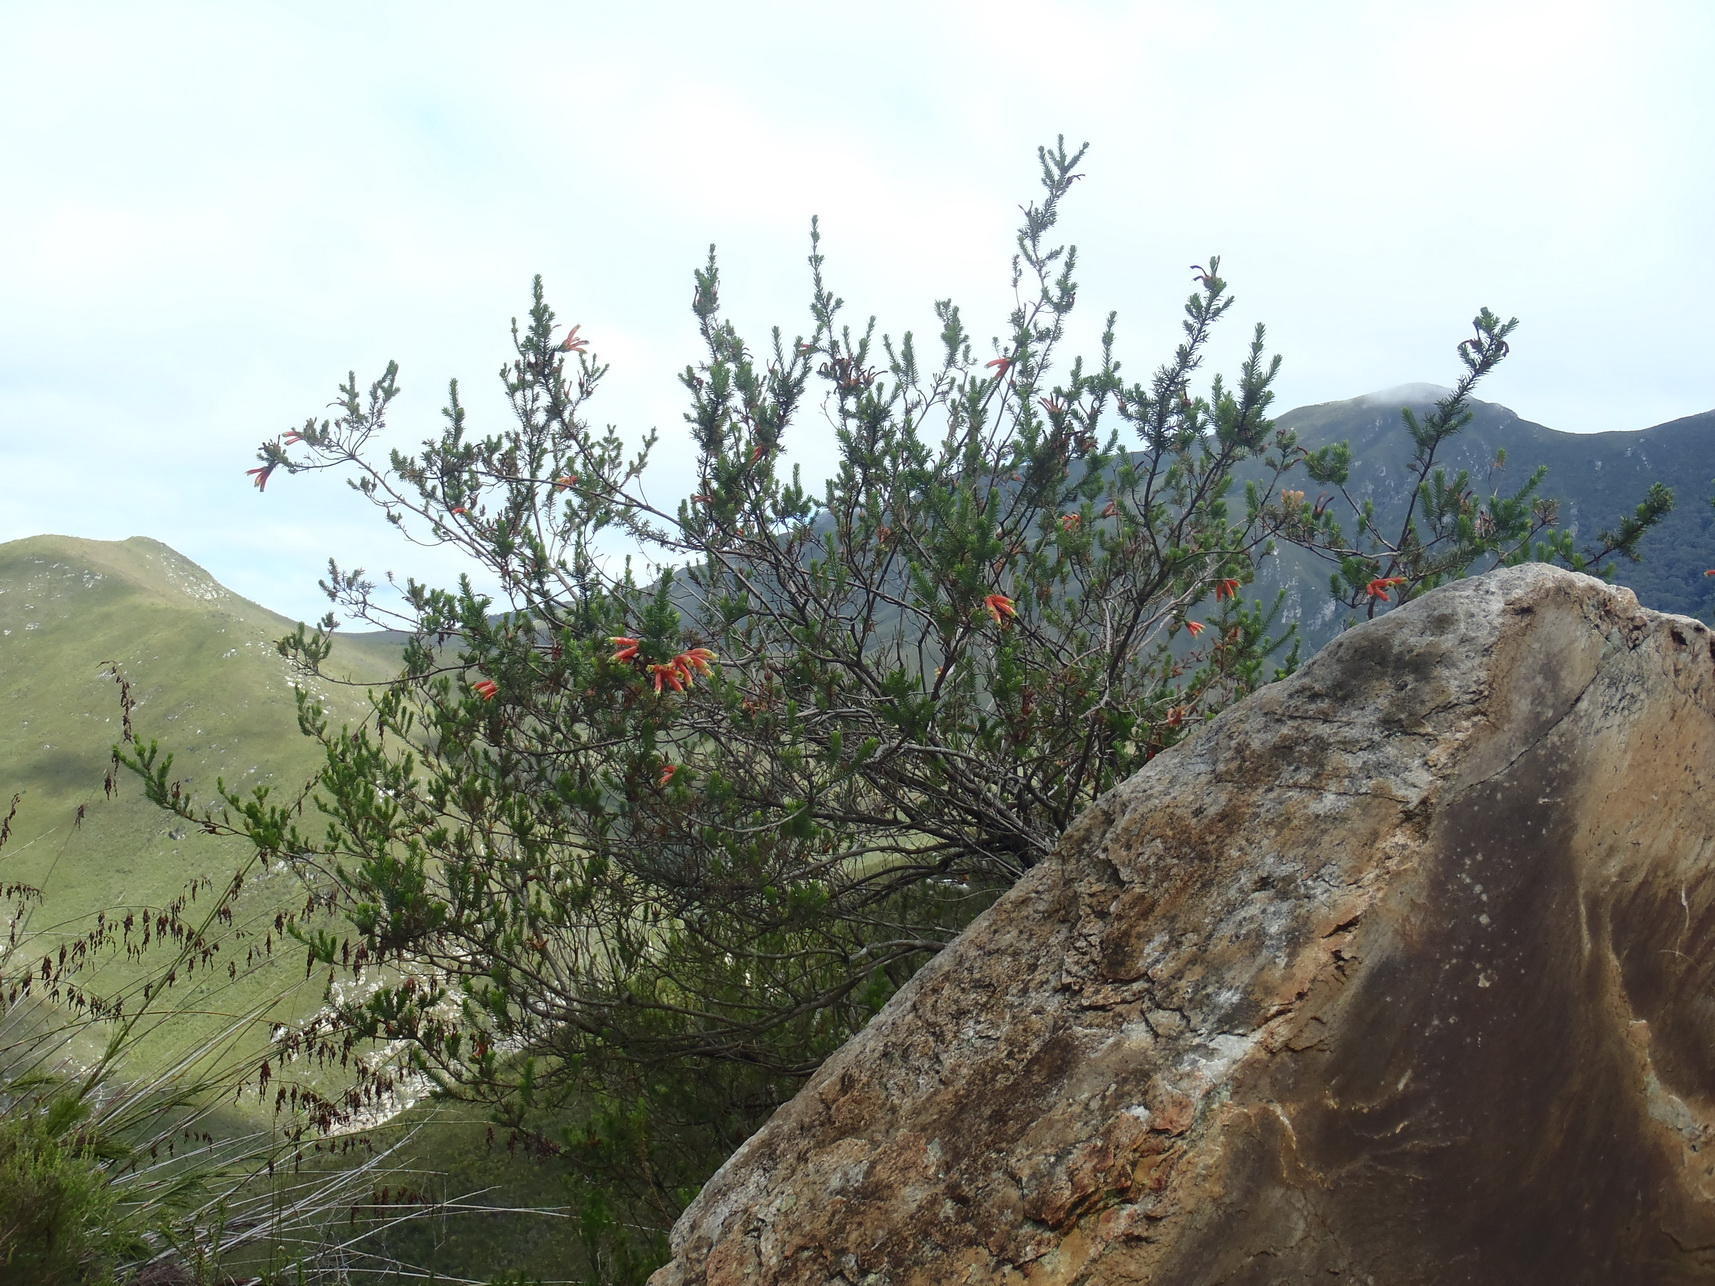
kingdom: Plantae
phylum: Tracheophyta
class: Magnoliopsida
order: Ericales
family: Ericaceae
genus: Erica
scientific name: Erica unicolor
